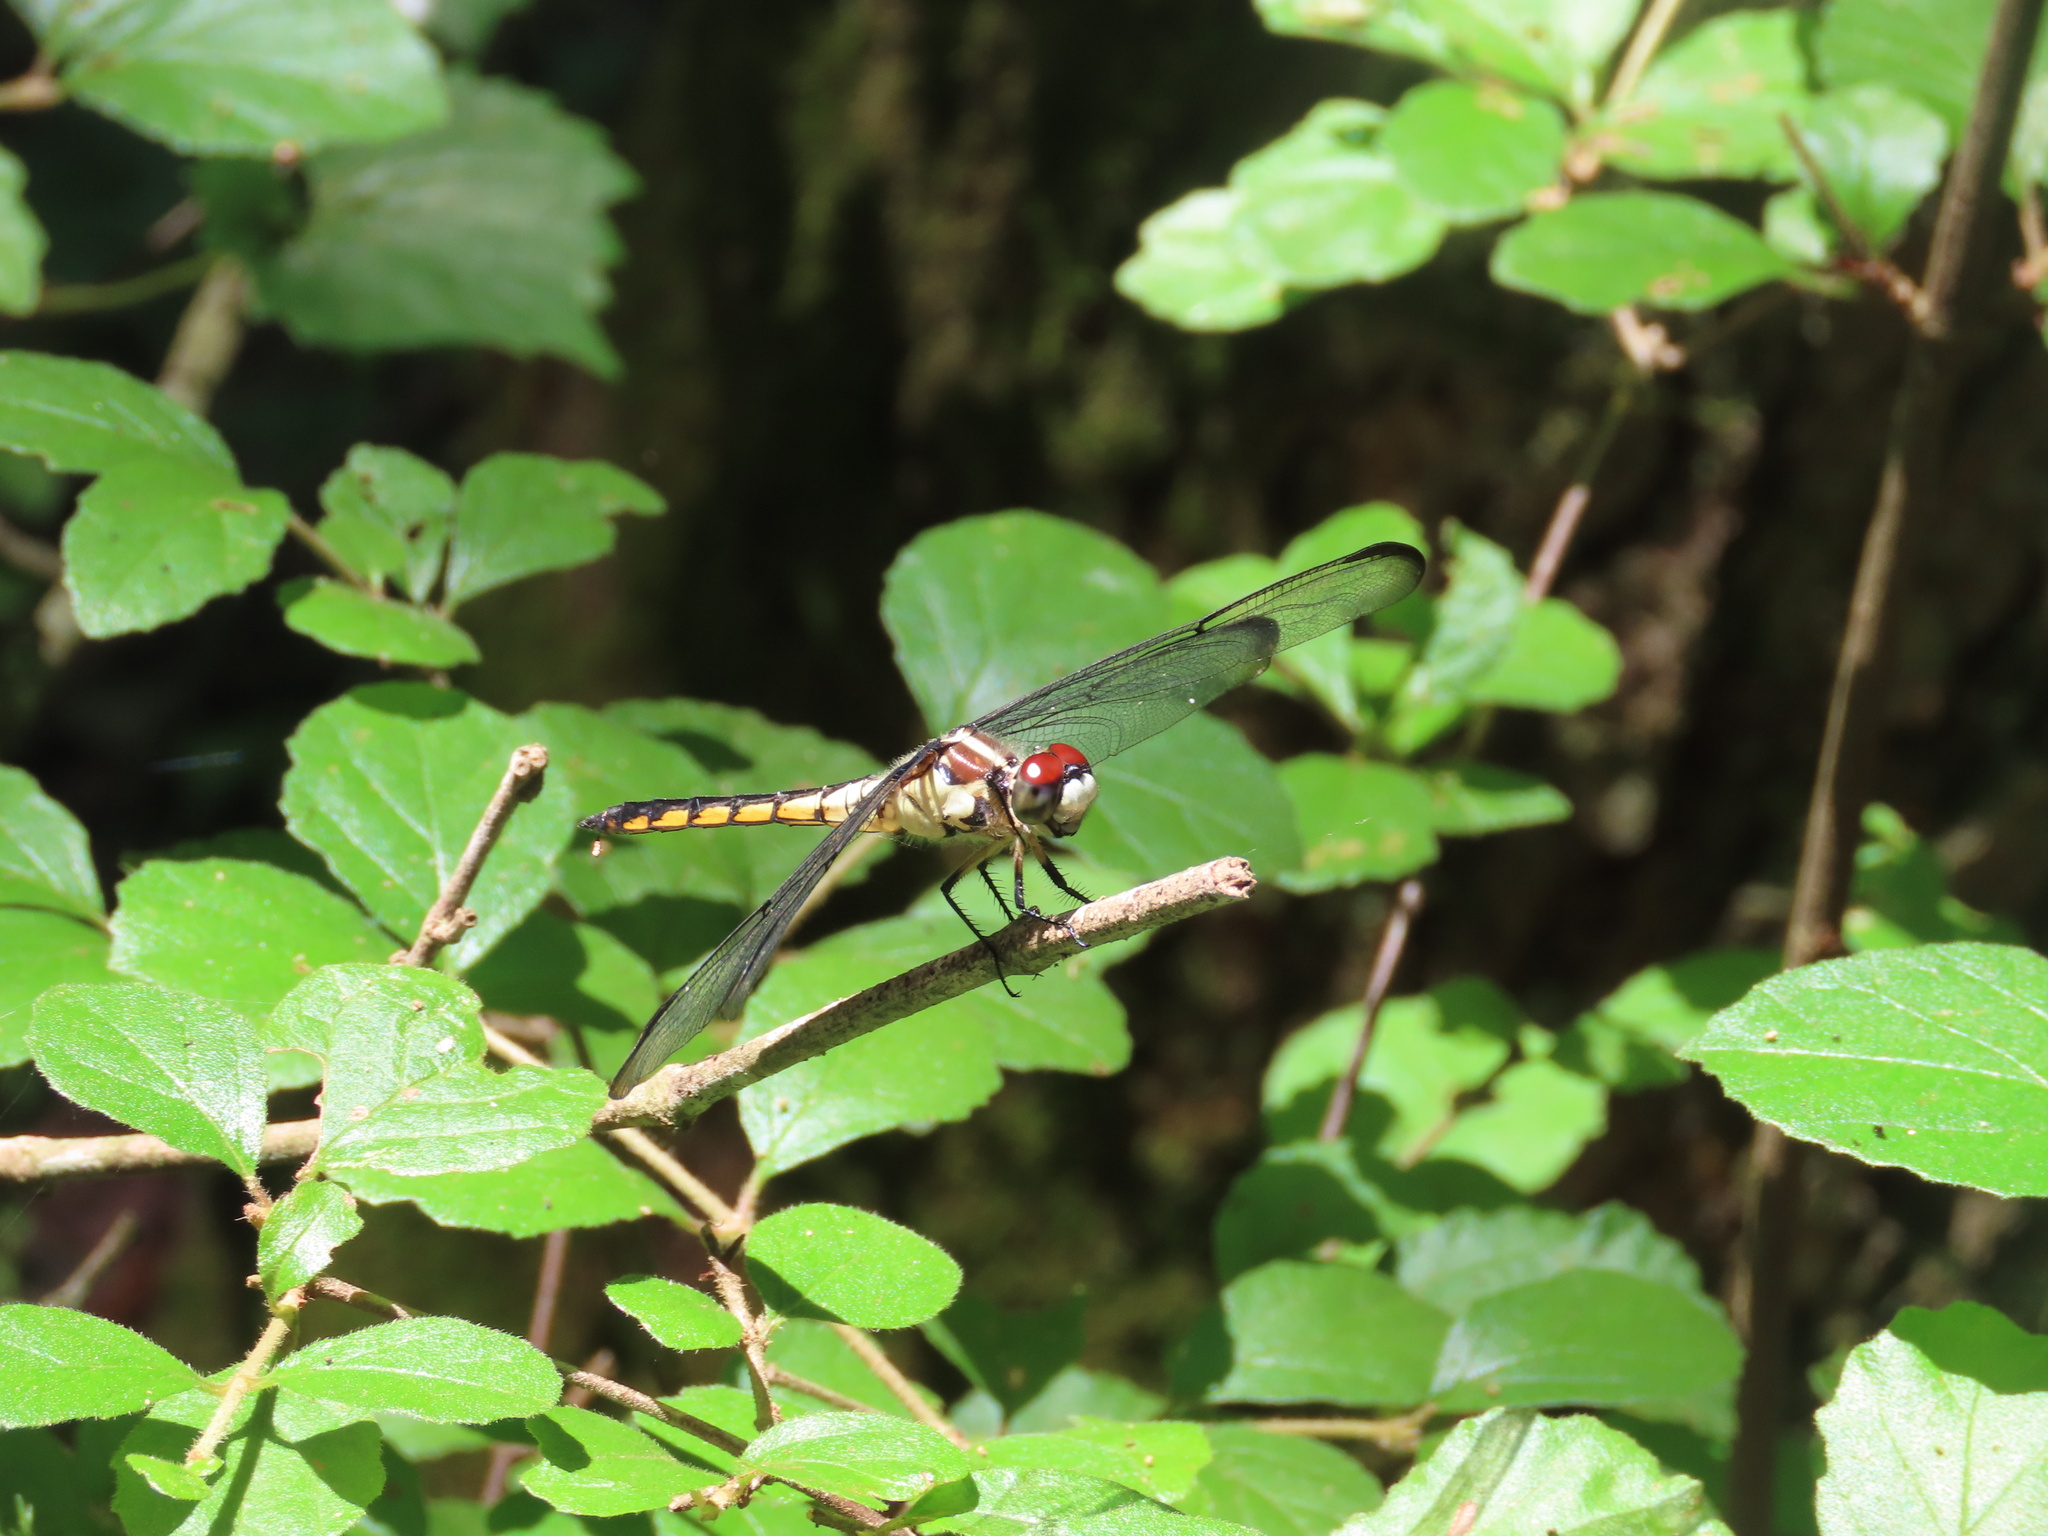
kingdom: Animalia
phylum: Arthropoda
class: Insecta
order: Odonata
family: Libellulidae
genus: Libellula
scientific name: Libellula vibrans
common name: Great blue skimmer
